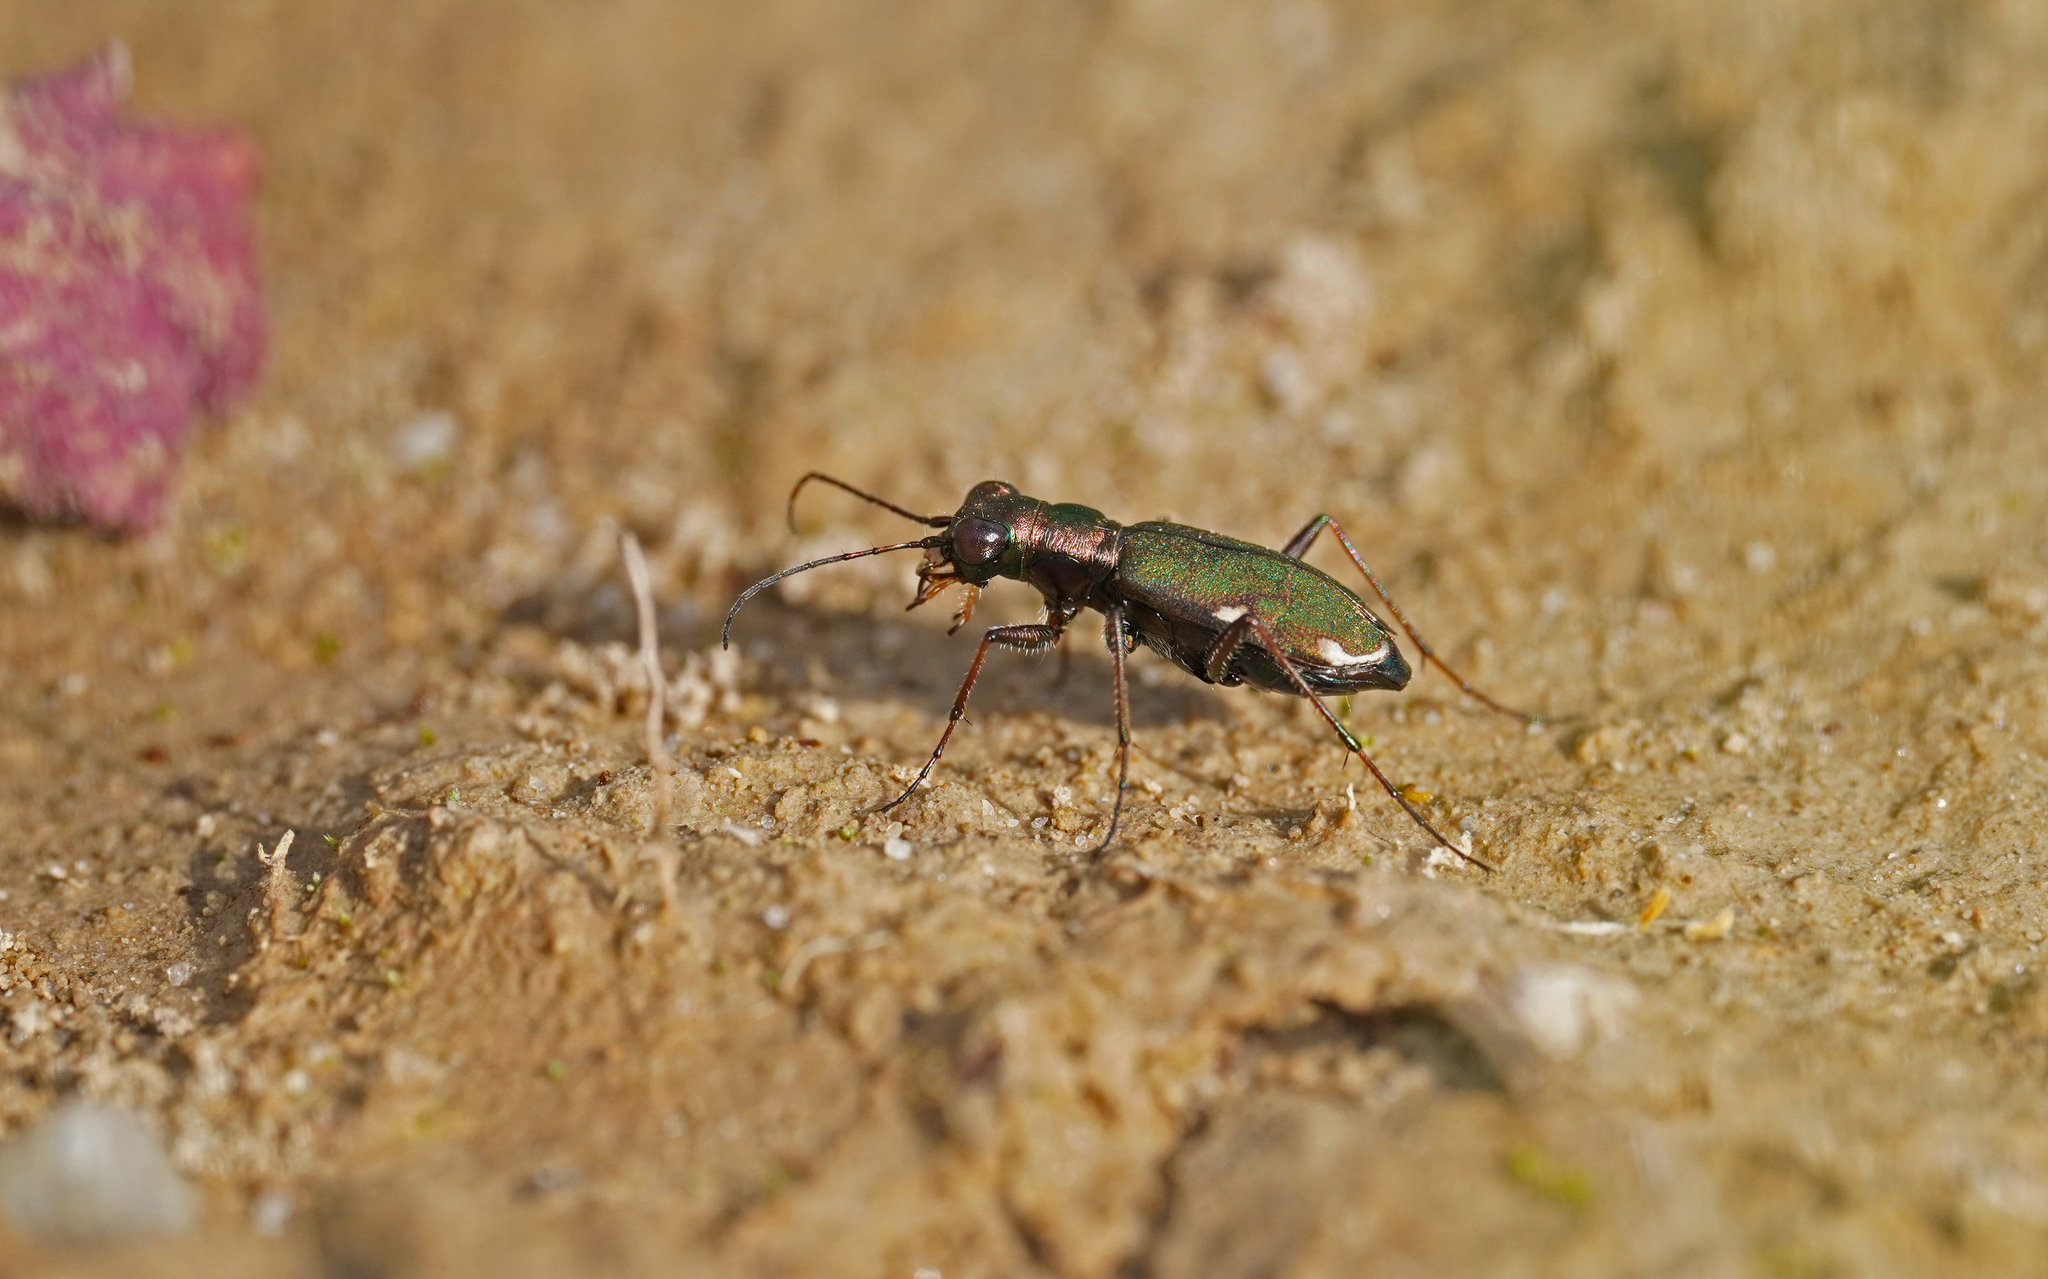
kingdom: Animalia
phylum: Arthropoda
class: Insecta
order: Coleoptera
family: Carabidae
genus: Cylindera
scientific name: Cylindera germanica
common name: Cliff tiger beetle
